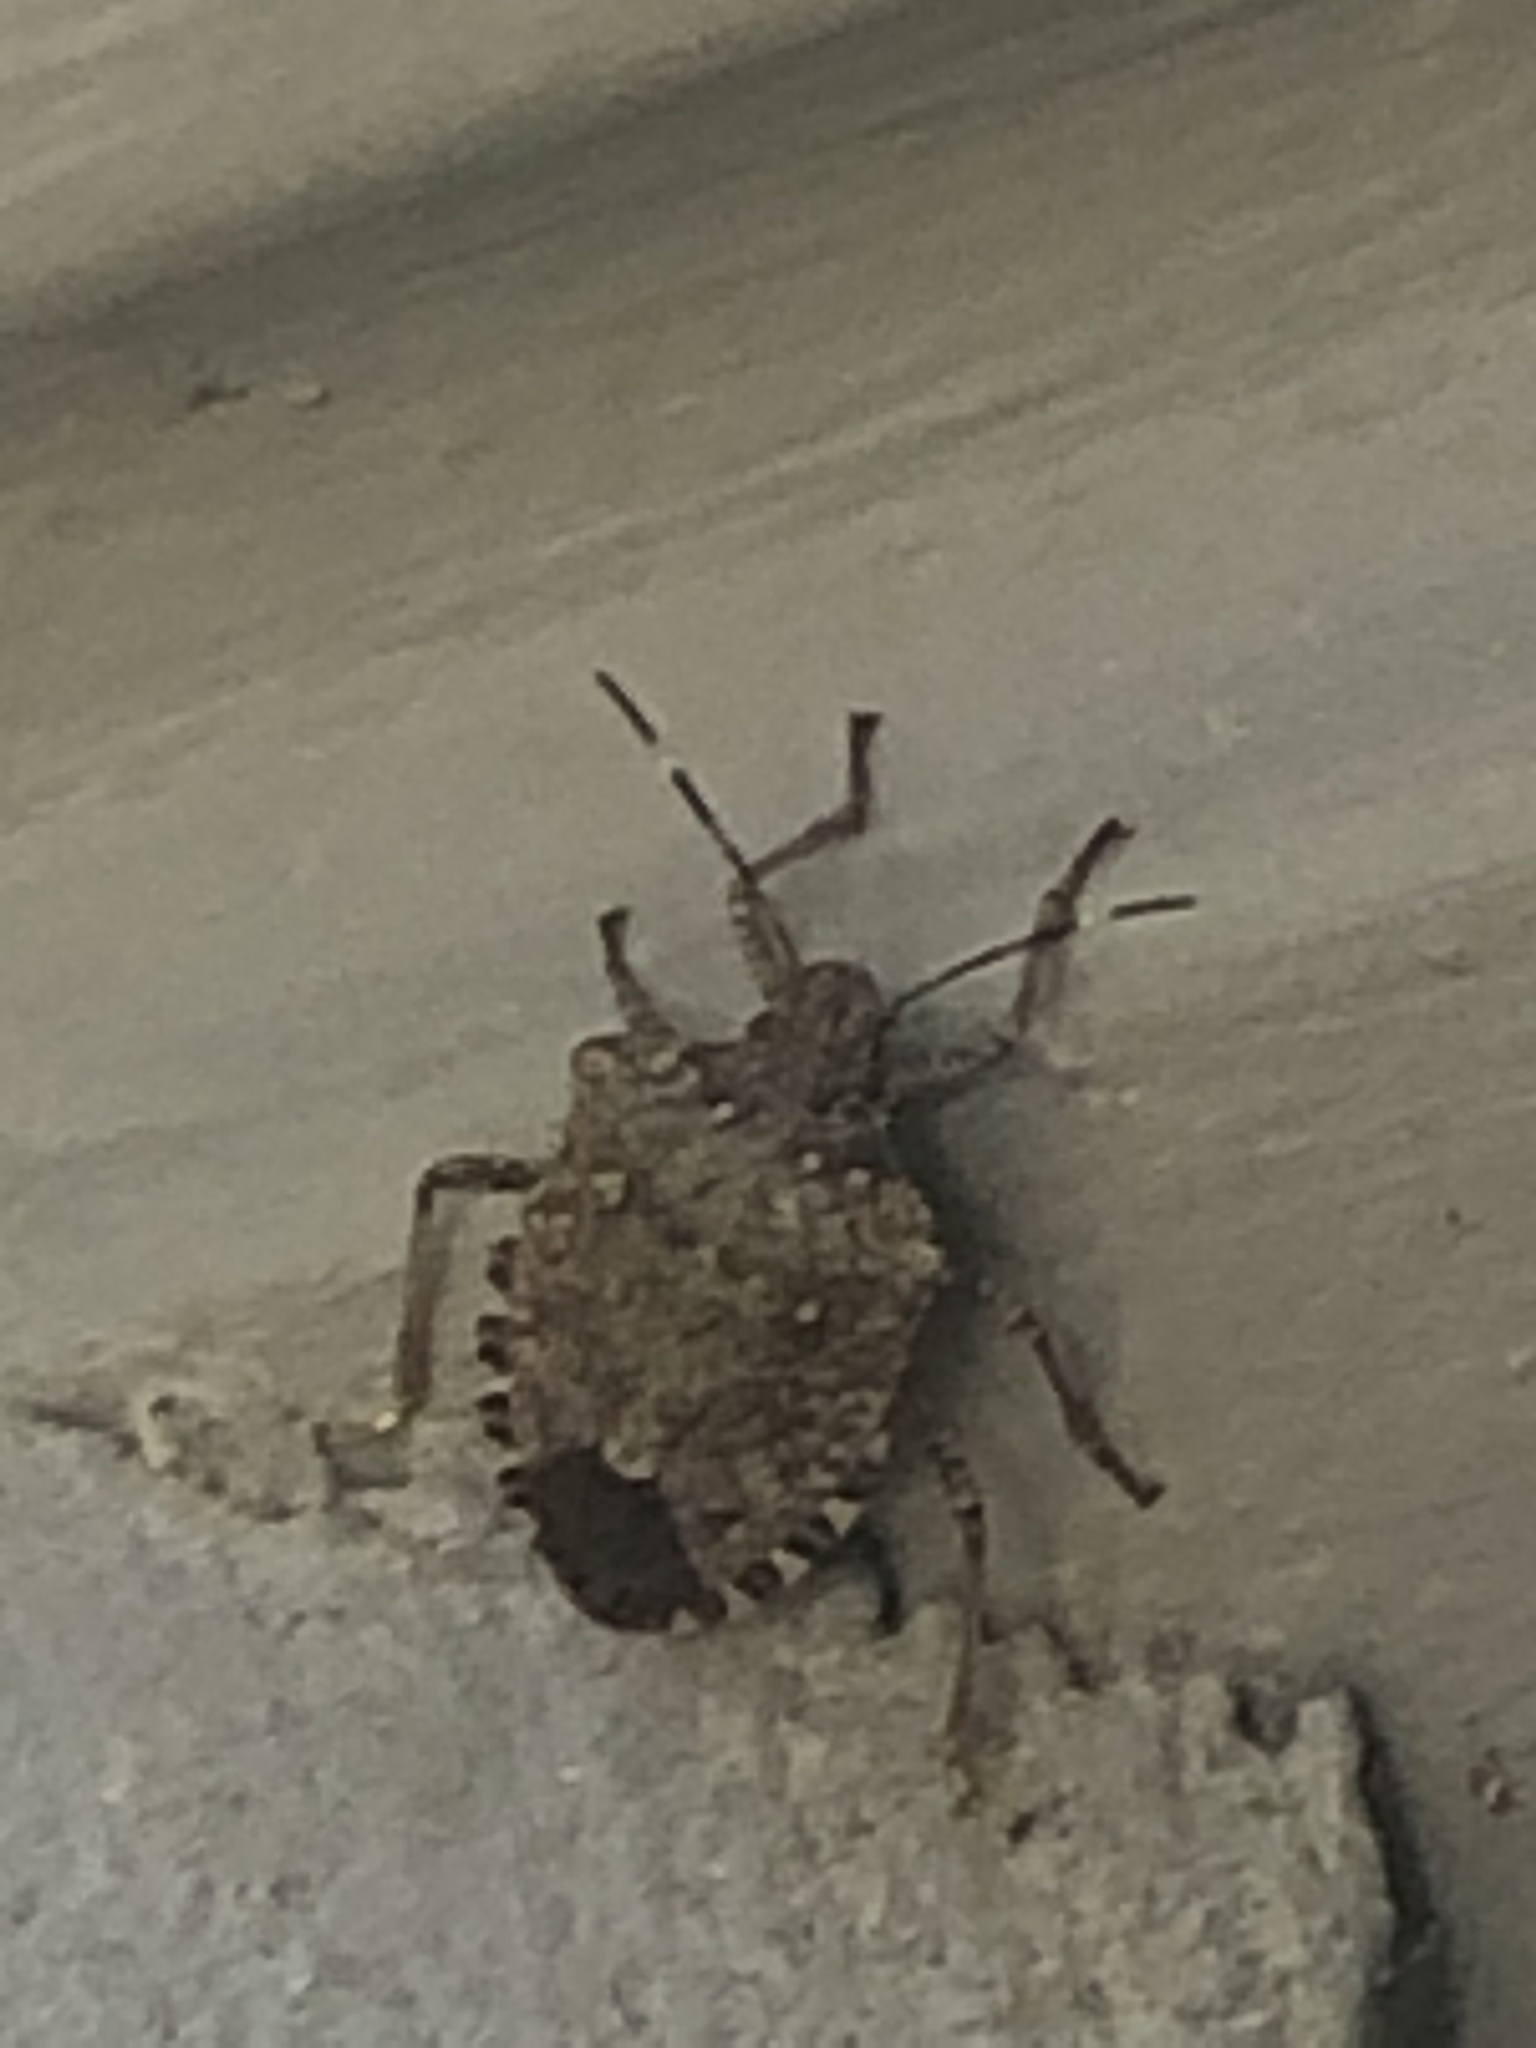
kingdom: Animalia
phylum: Arthropoda
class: Insecta
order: Hemiptera
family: Pentatomidae
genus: Halyomorpha
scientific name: Halyomorpha halys
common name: Brown marmorated stink bug
